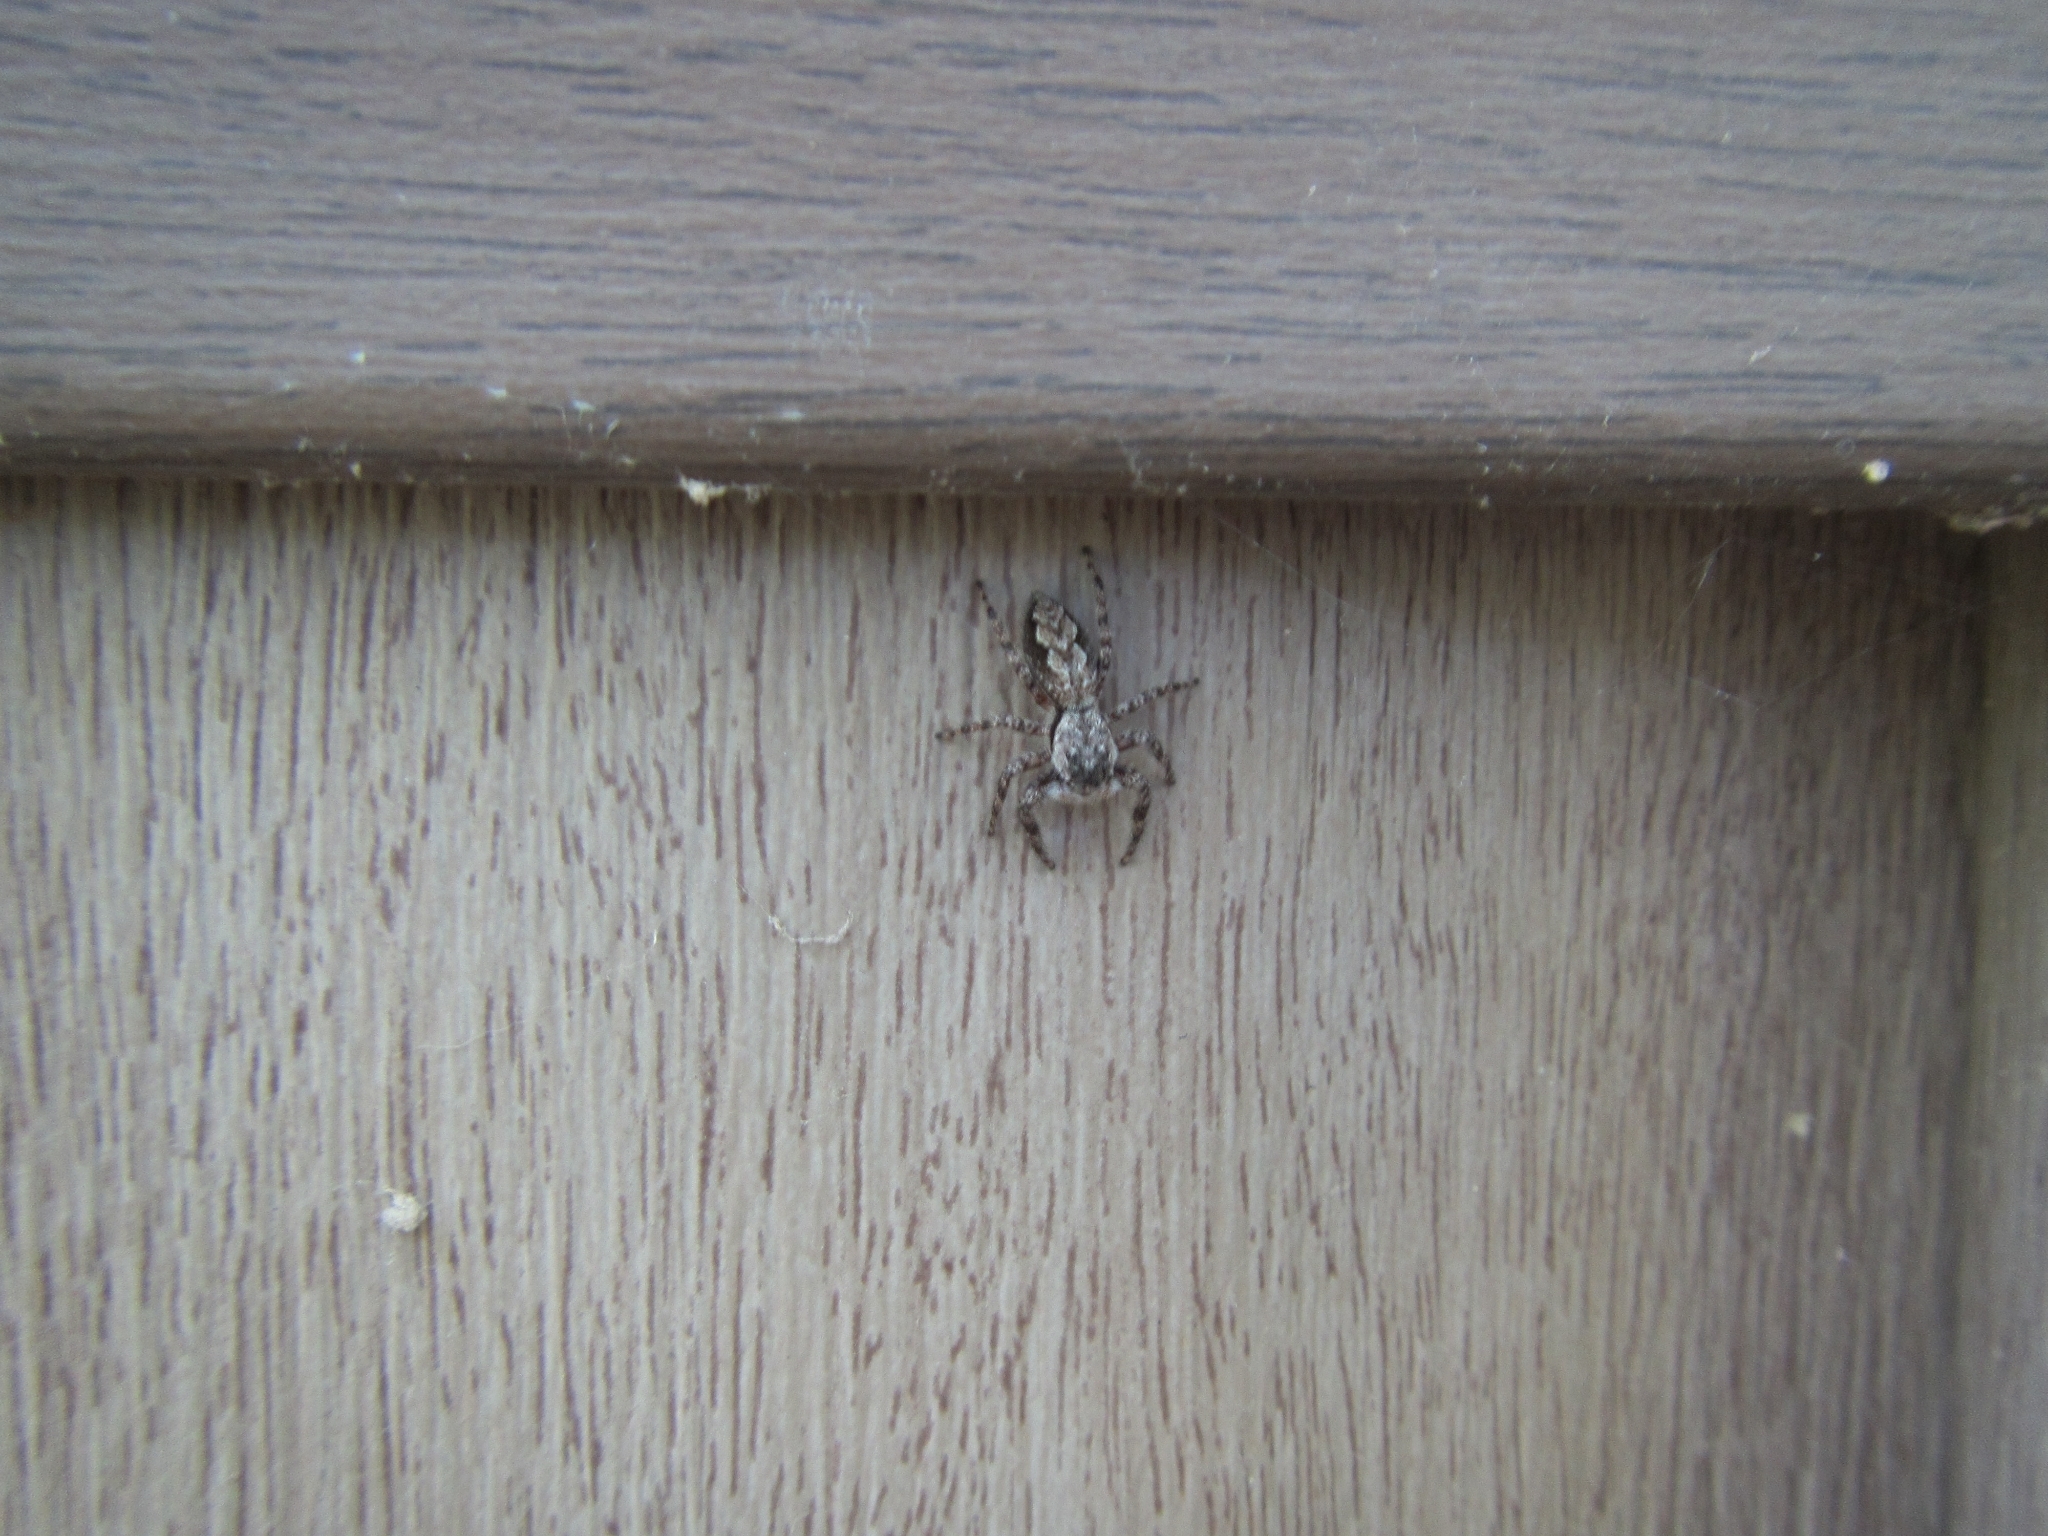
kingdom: Animalia
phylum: Arthropoda
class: Arachnida
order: Araneae
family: Salticidae
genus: Platycryptus
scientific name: Platycryptus undatus
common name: Tan jumping spider
